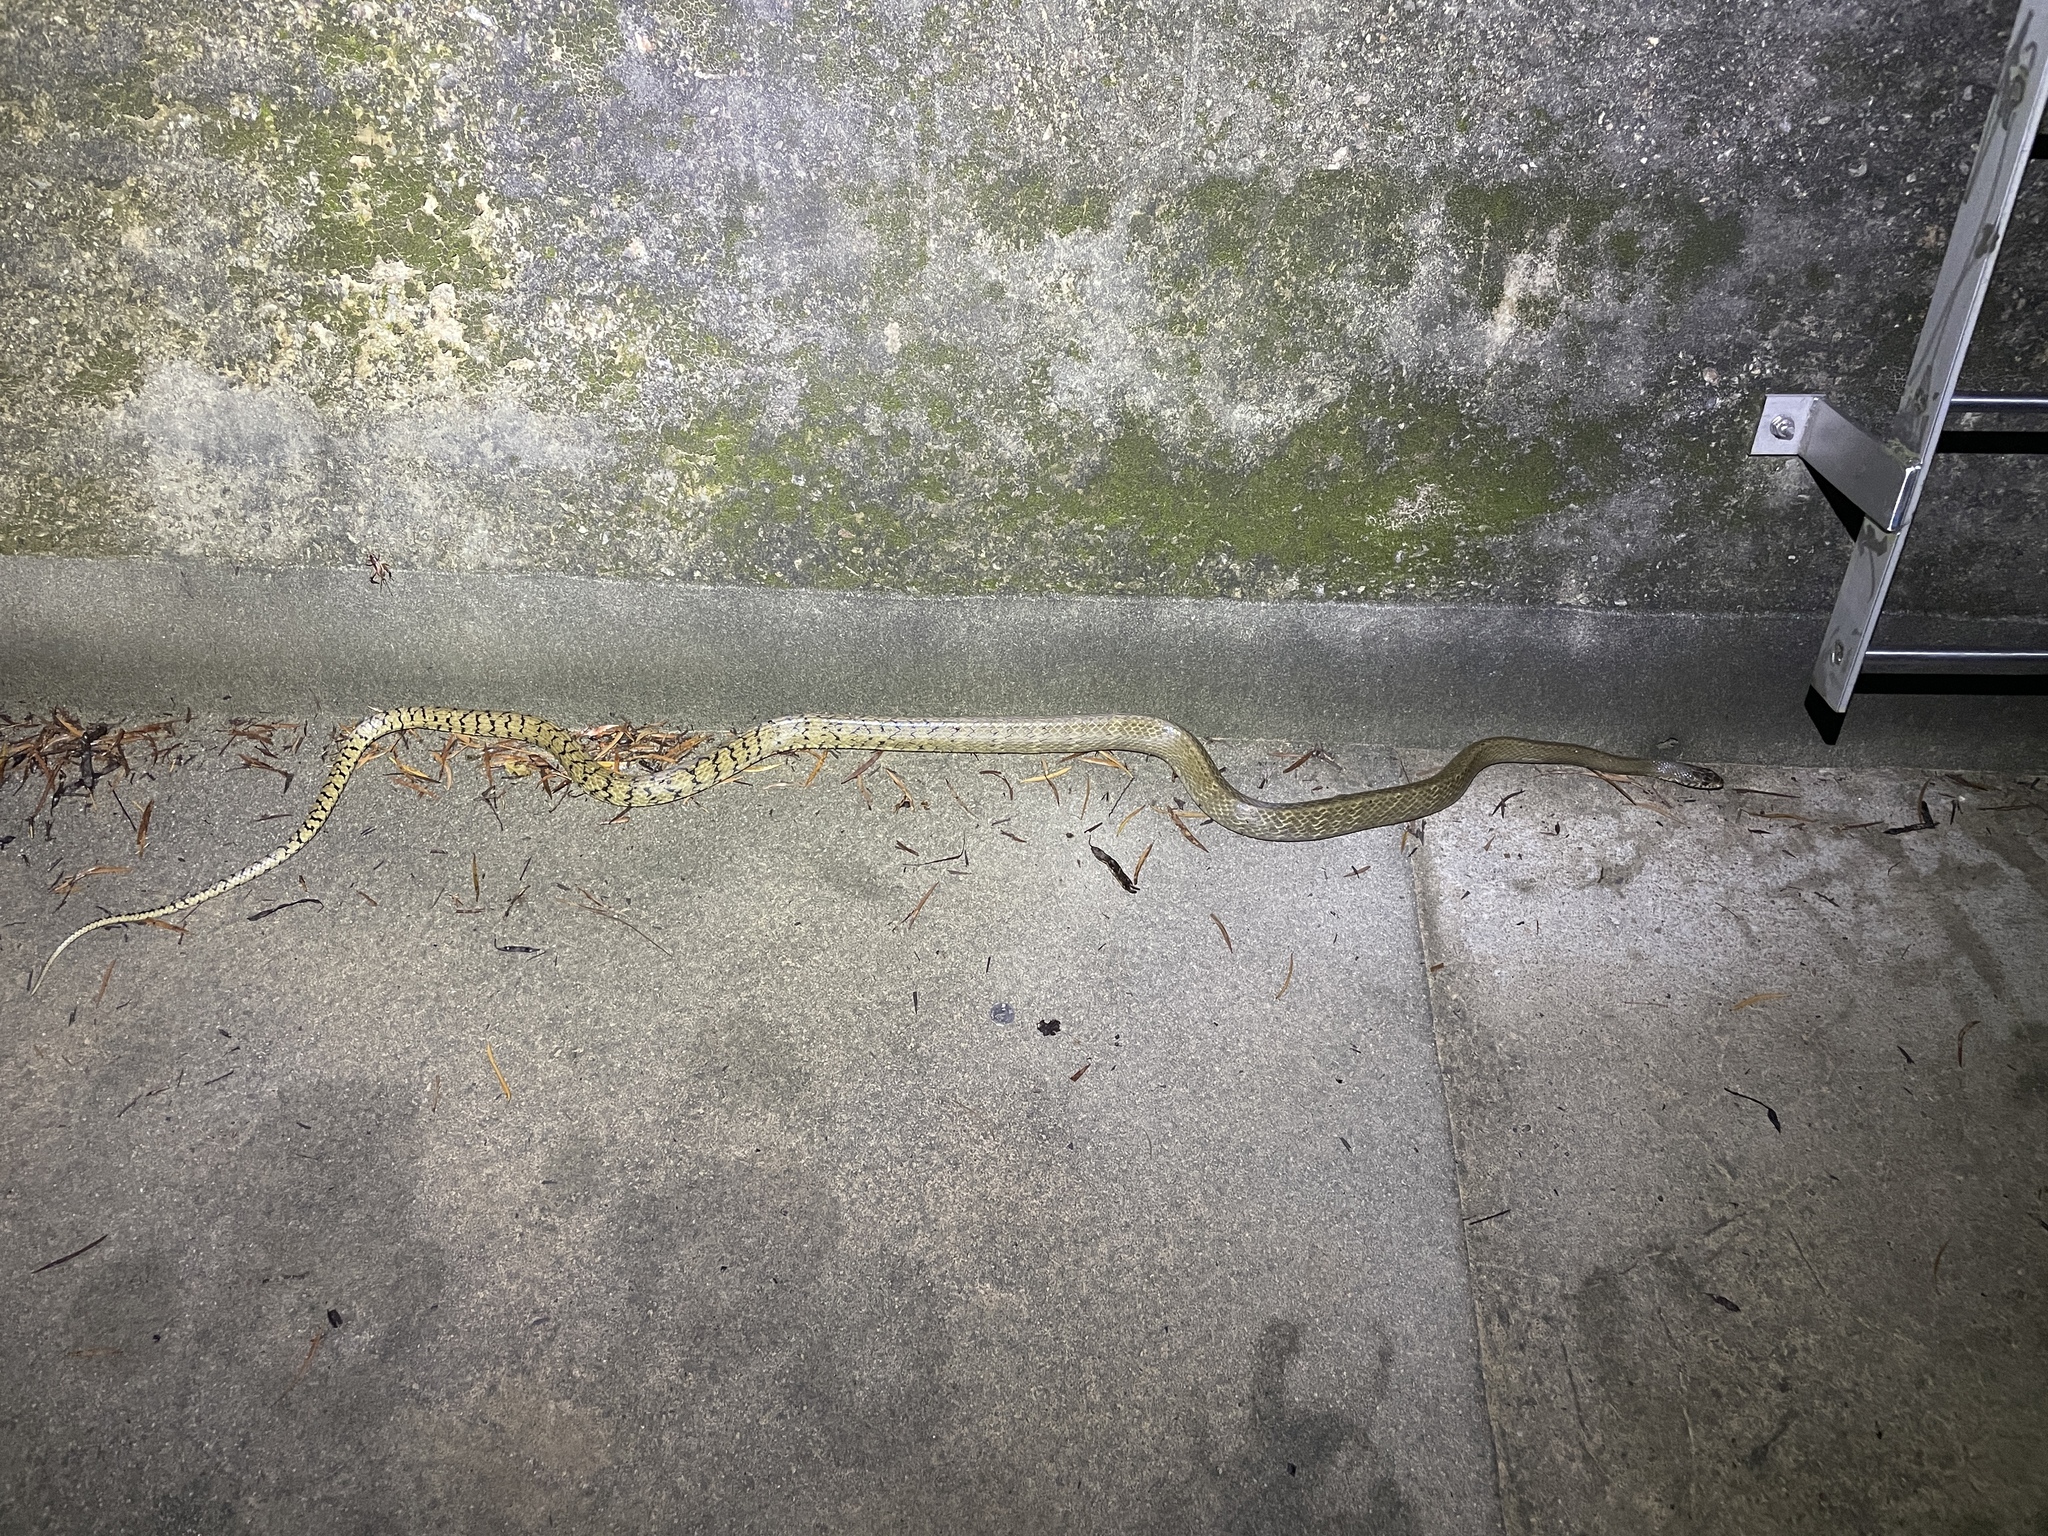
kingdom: Animalia
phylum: Chordata
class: Squamata
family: Colubridae
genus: Ptyas
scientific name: Ptyas mucosa
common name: Oriental ratsnake
